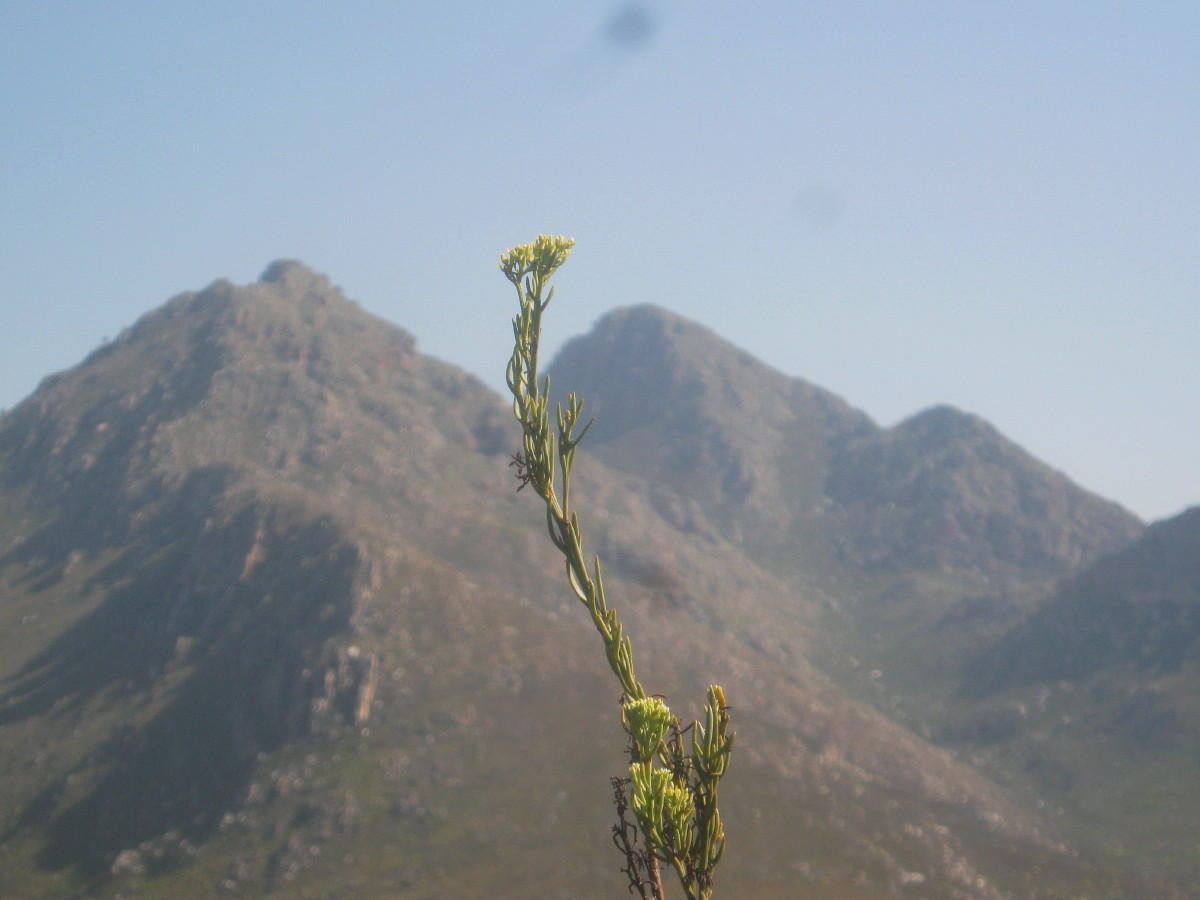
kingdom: Plantae
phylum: Tracheophyta
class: Magnoliopsida
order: Santalales
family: Thesiaceae
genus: Thesium
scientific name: Thesium strictum
